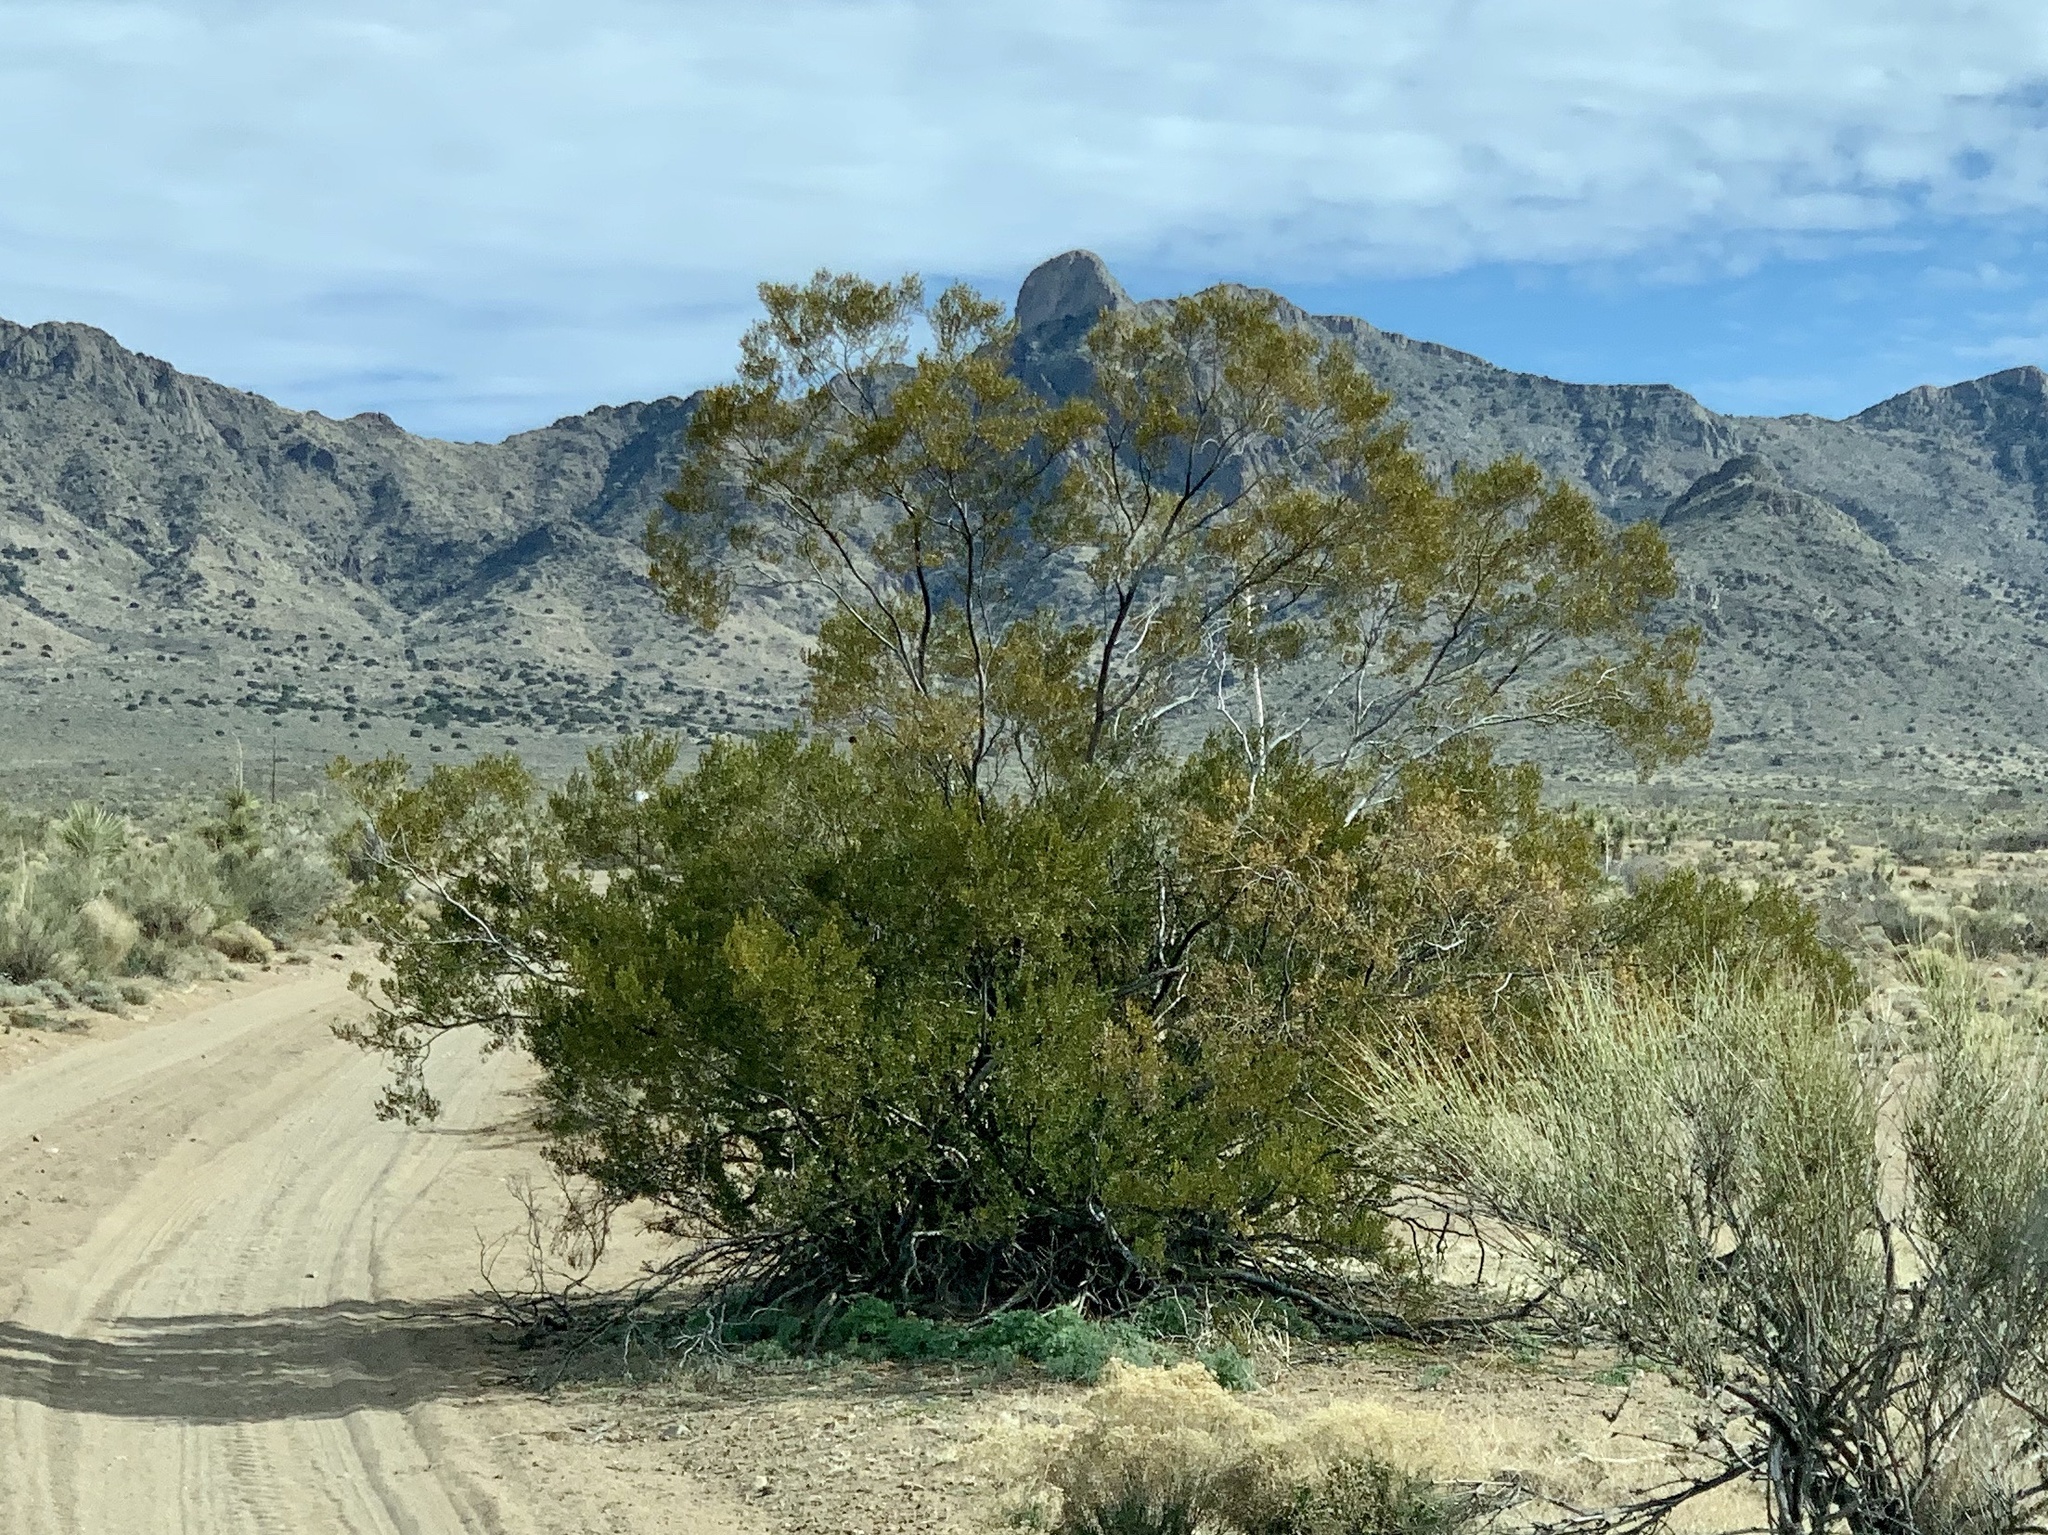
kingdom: Plantae
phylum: Tracheophyta
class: Magnoliopsida
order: Zygophyllales
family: Zygophyllaceae
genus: Larrea
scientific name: Larrea tridentata
